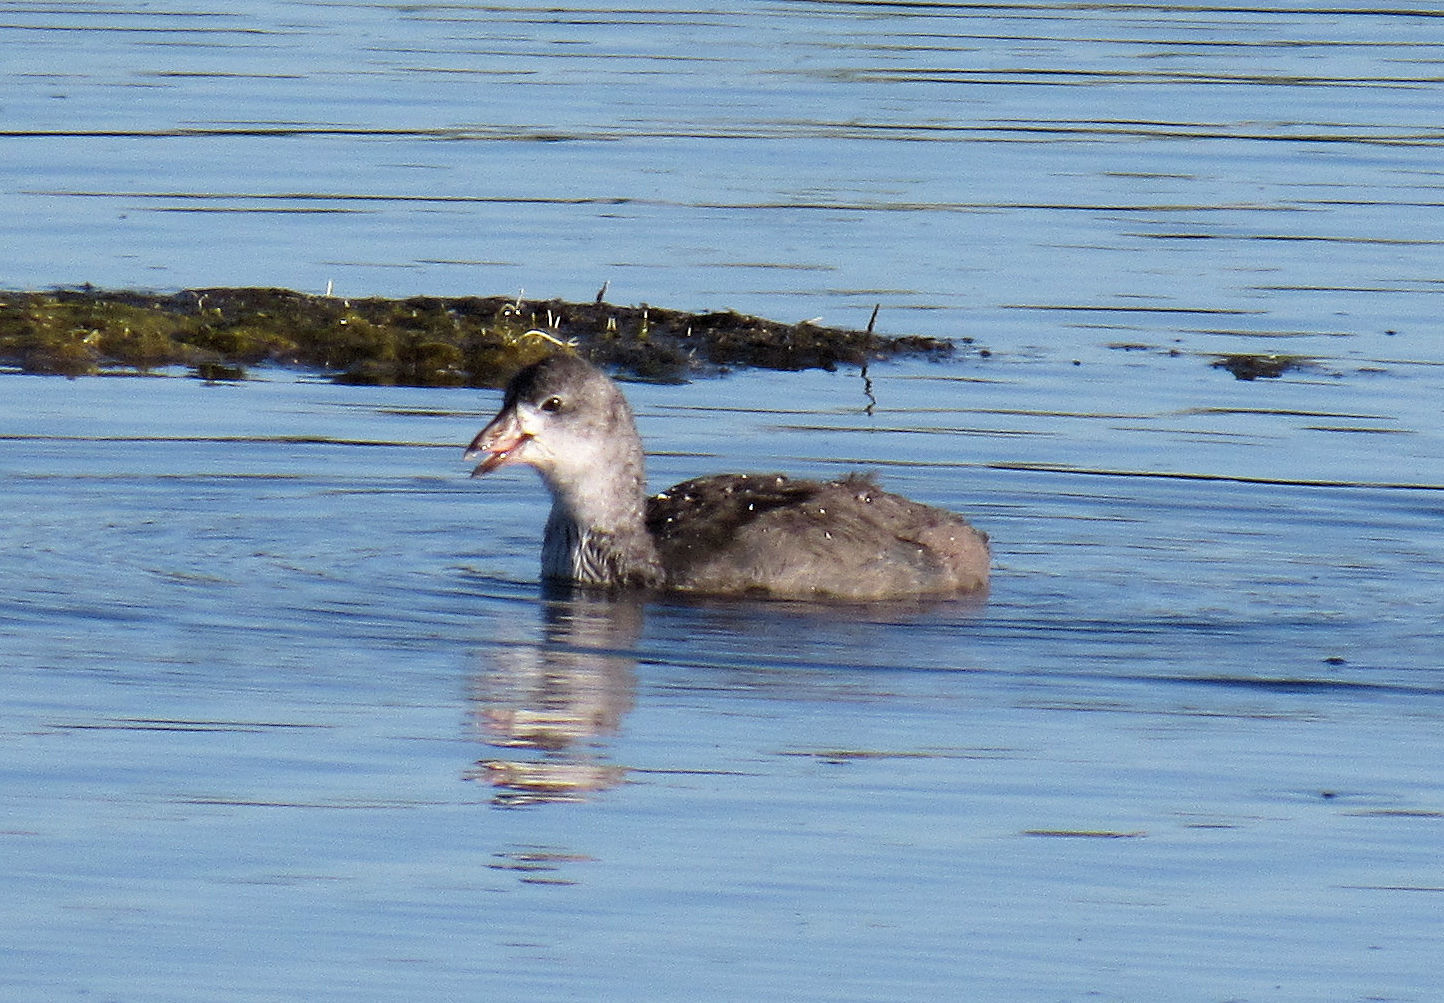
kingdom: Animalia
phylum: Chordata
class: Aves
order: Gruiformes
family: Rallidae
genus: Fulica
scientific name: Fulica americana
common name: American coot
